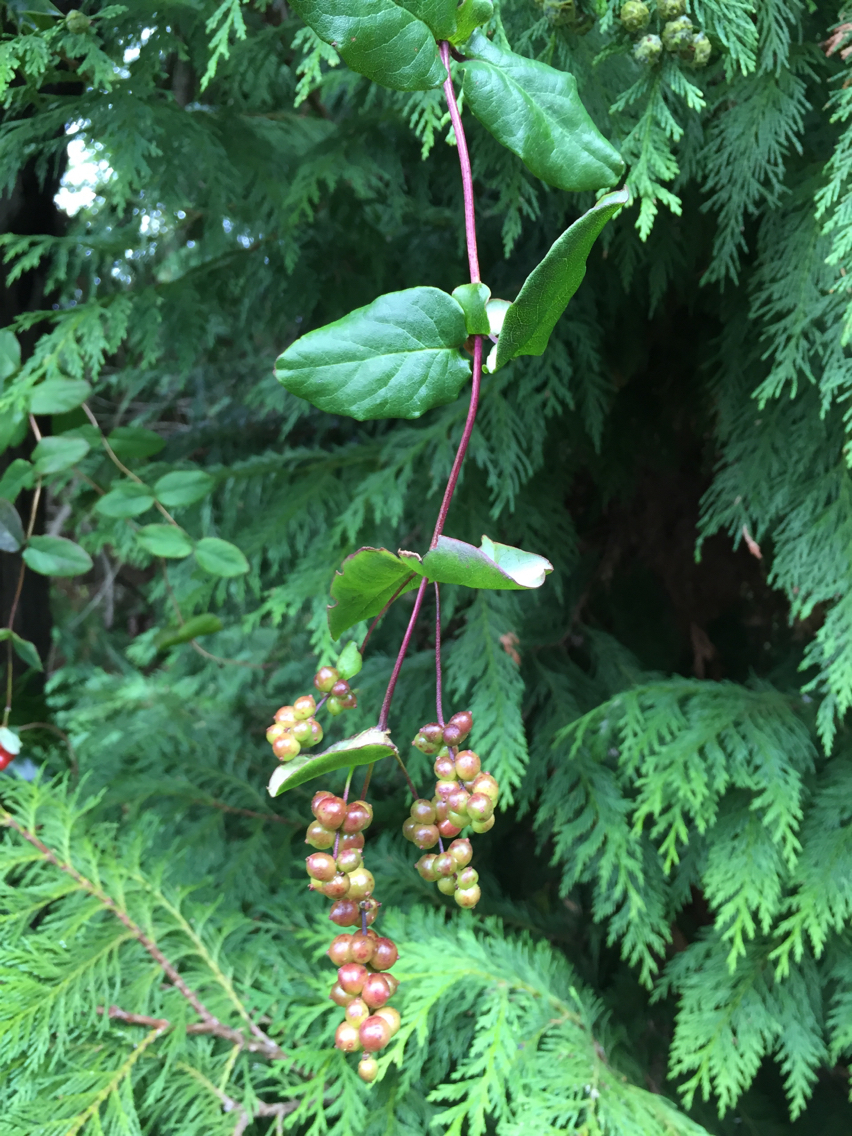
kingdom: Plantae
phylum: Tracheophyta
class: Magnoliopsida
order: Dipsacales
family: Caprifoliaceae
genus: Lonicera
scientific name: Lonicera hispidula
